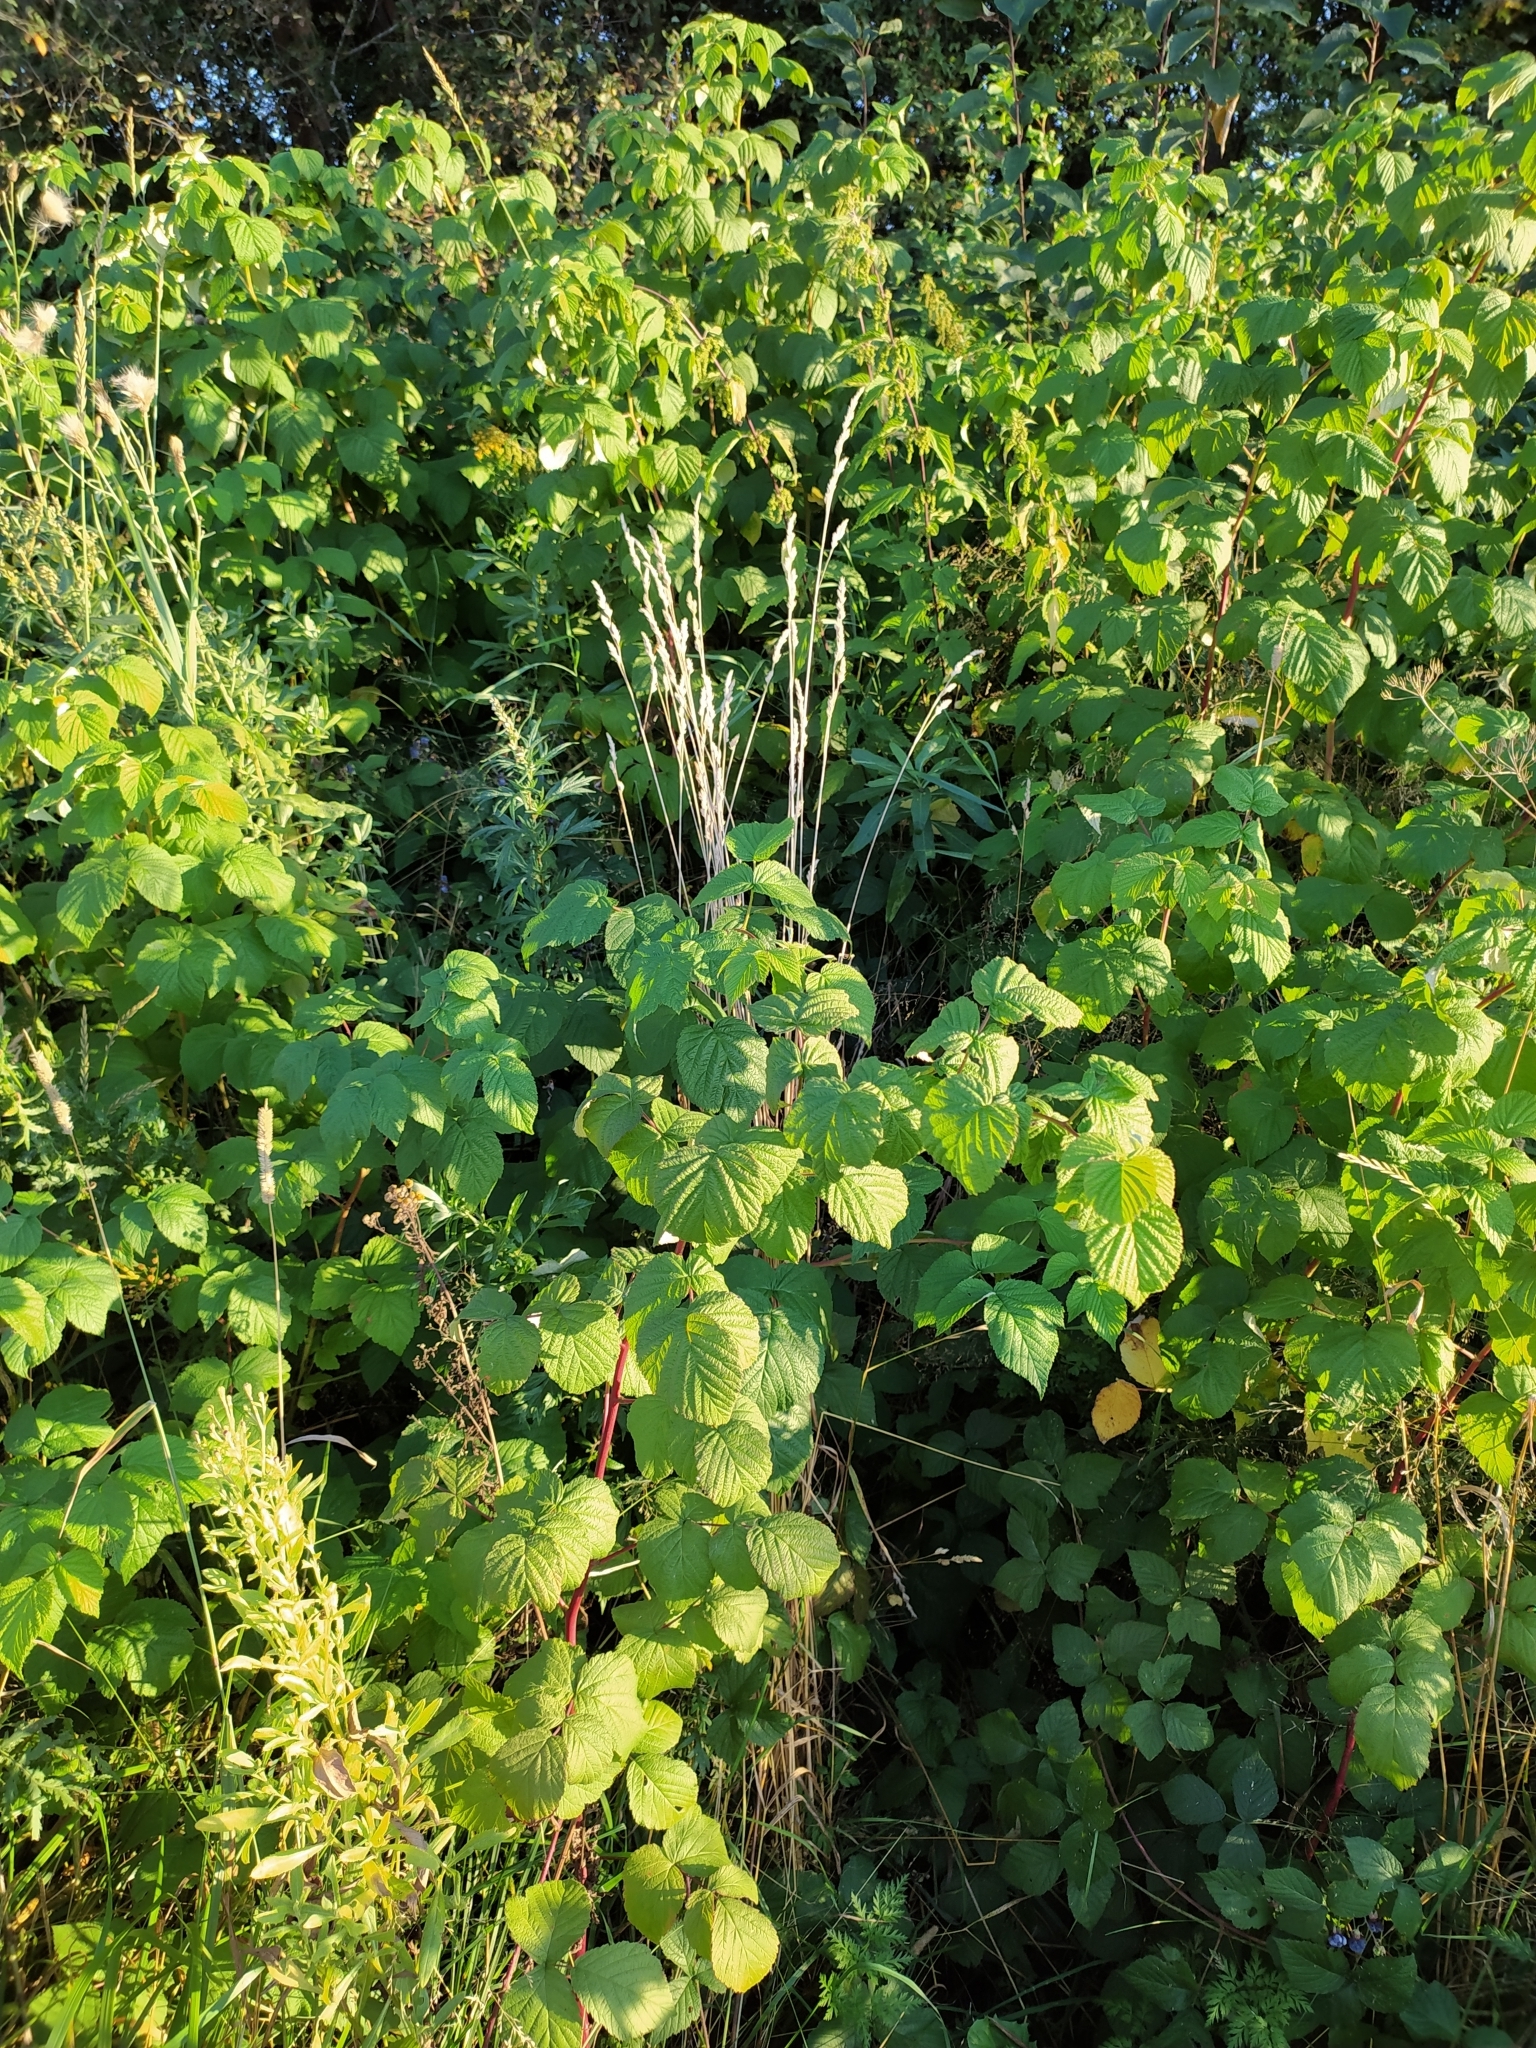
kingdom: Plantae
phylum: Tracheophyta
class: Magnoliopsida
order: Rosales
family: Rosaceae
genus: Rubus
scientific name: Rubus idaeus
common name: Raspberry
